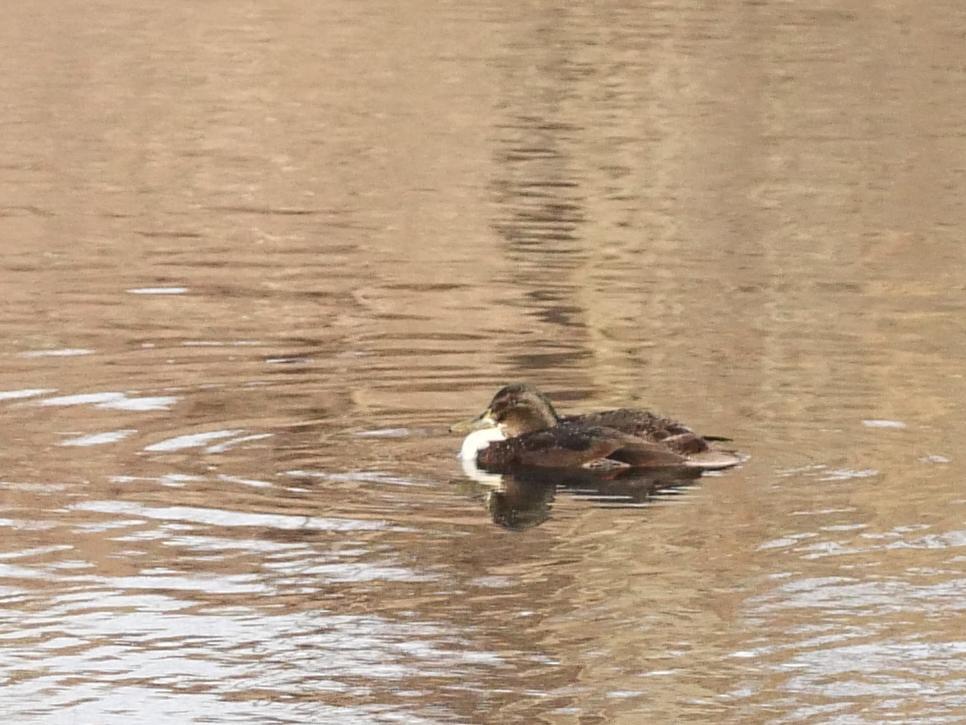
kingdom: Animalia
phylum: Chordata
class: Aves
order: Anseriformes
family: Anatidae
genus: Anas
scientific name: Anas platyrhynchos
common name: Mallard
